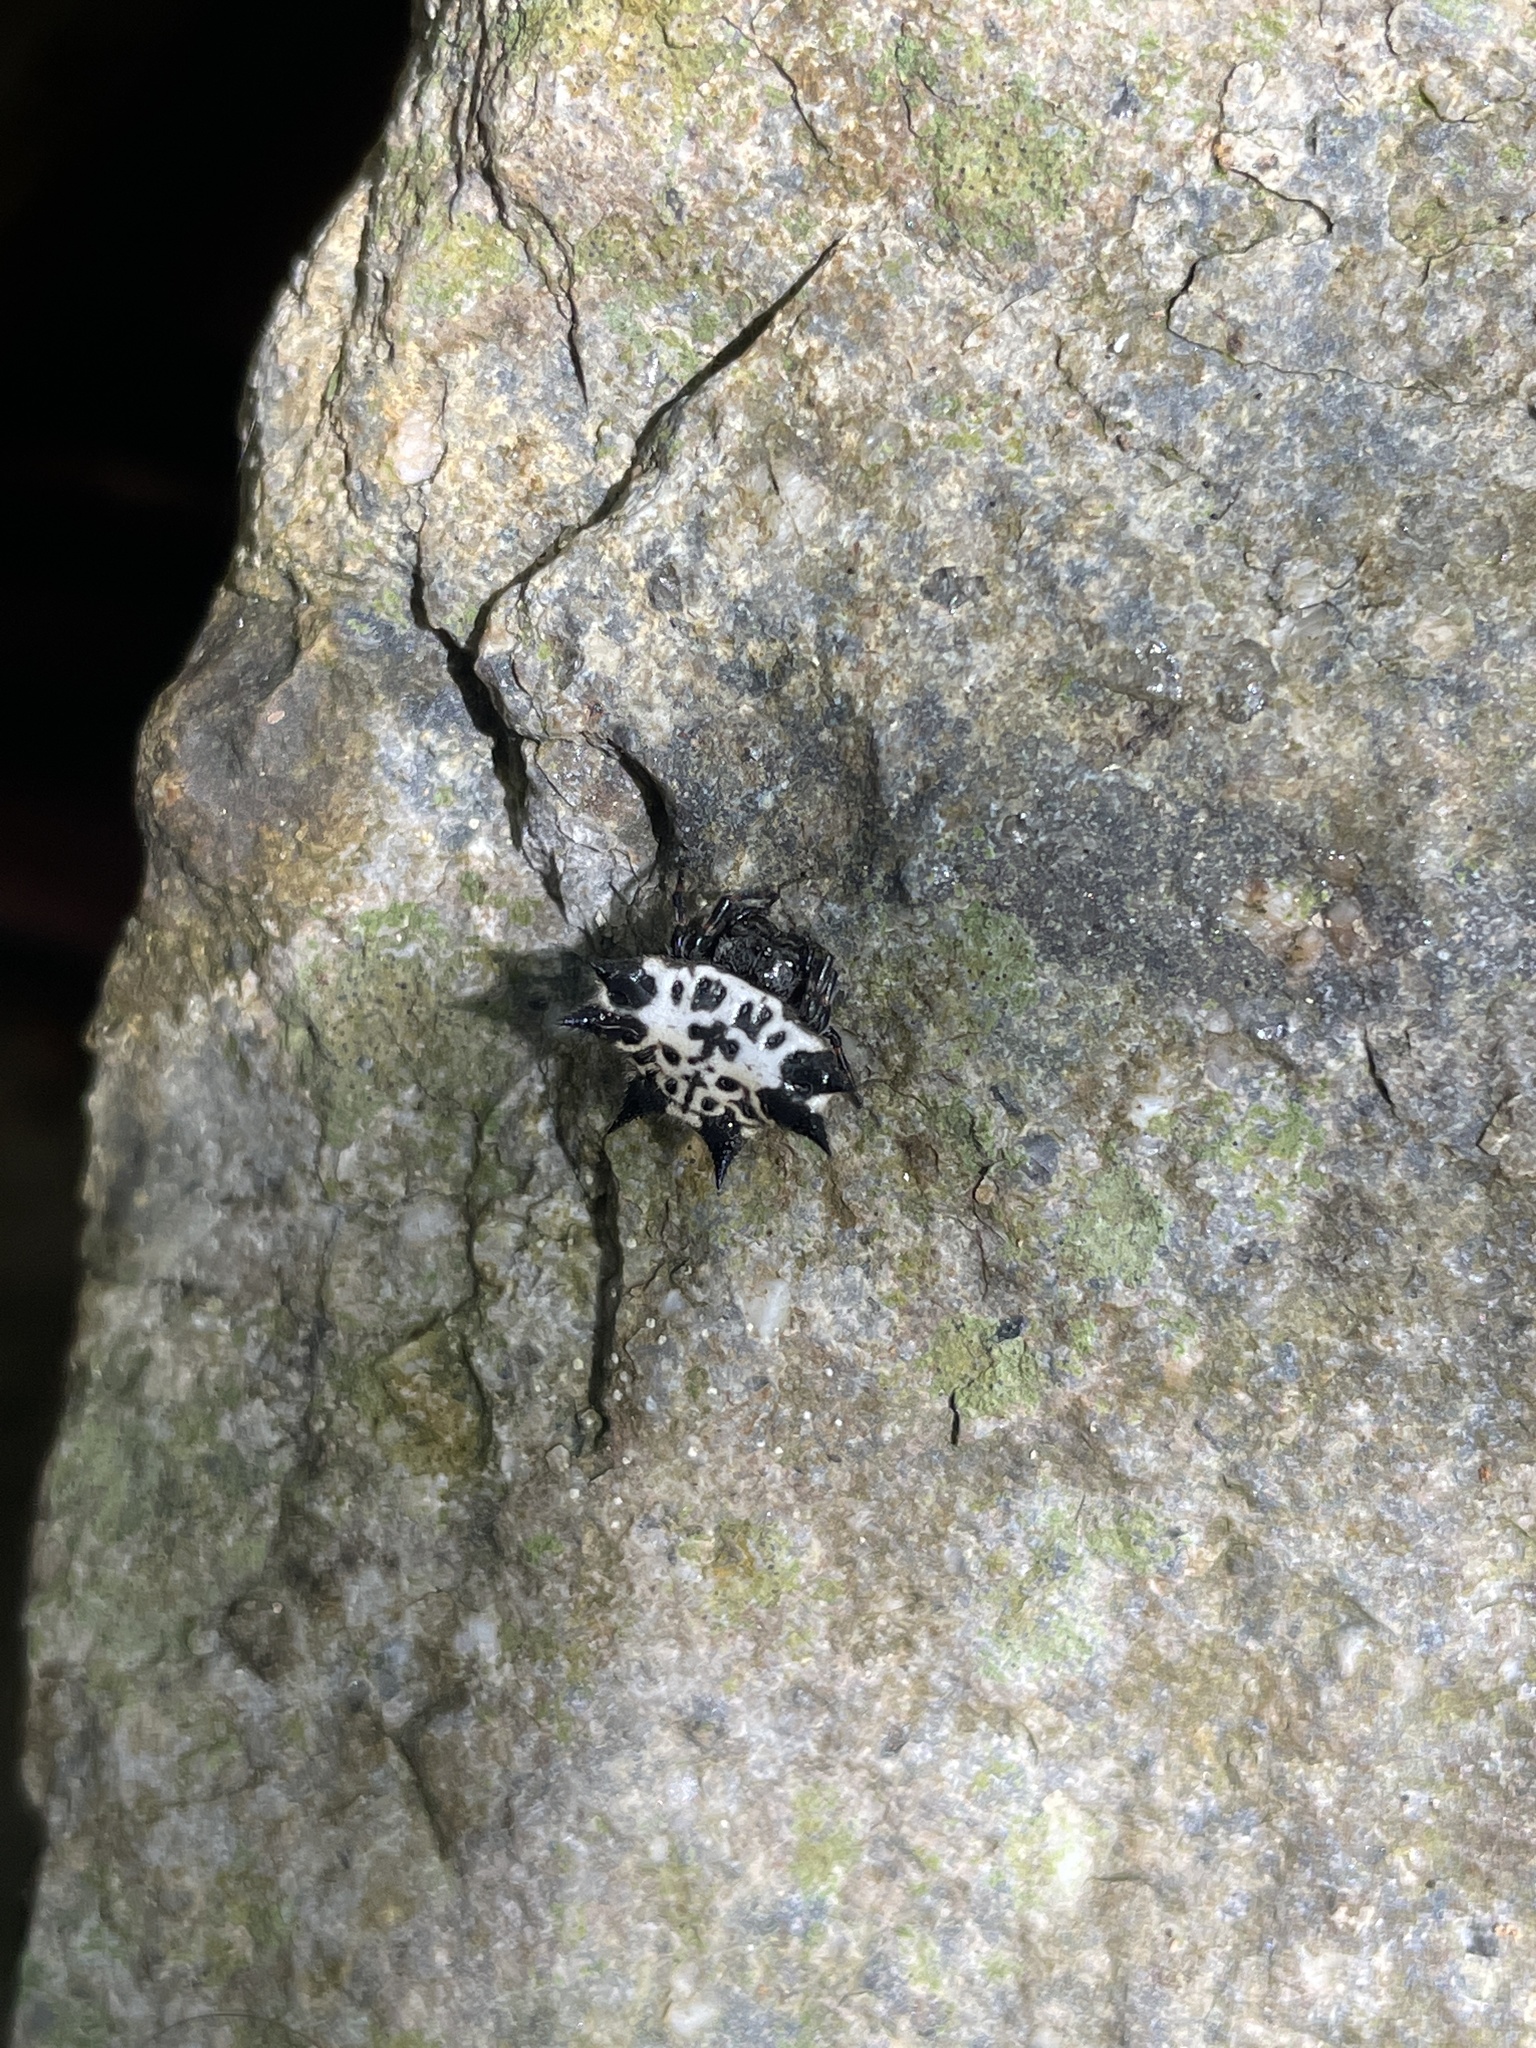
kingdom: Animalia
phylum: Arthropoda
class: Arachnida
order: Araneae
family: Araneidae
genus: Gasteracantha
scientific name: Gasteracantha kuhli
